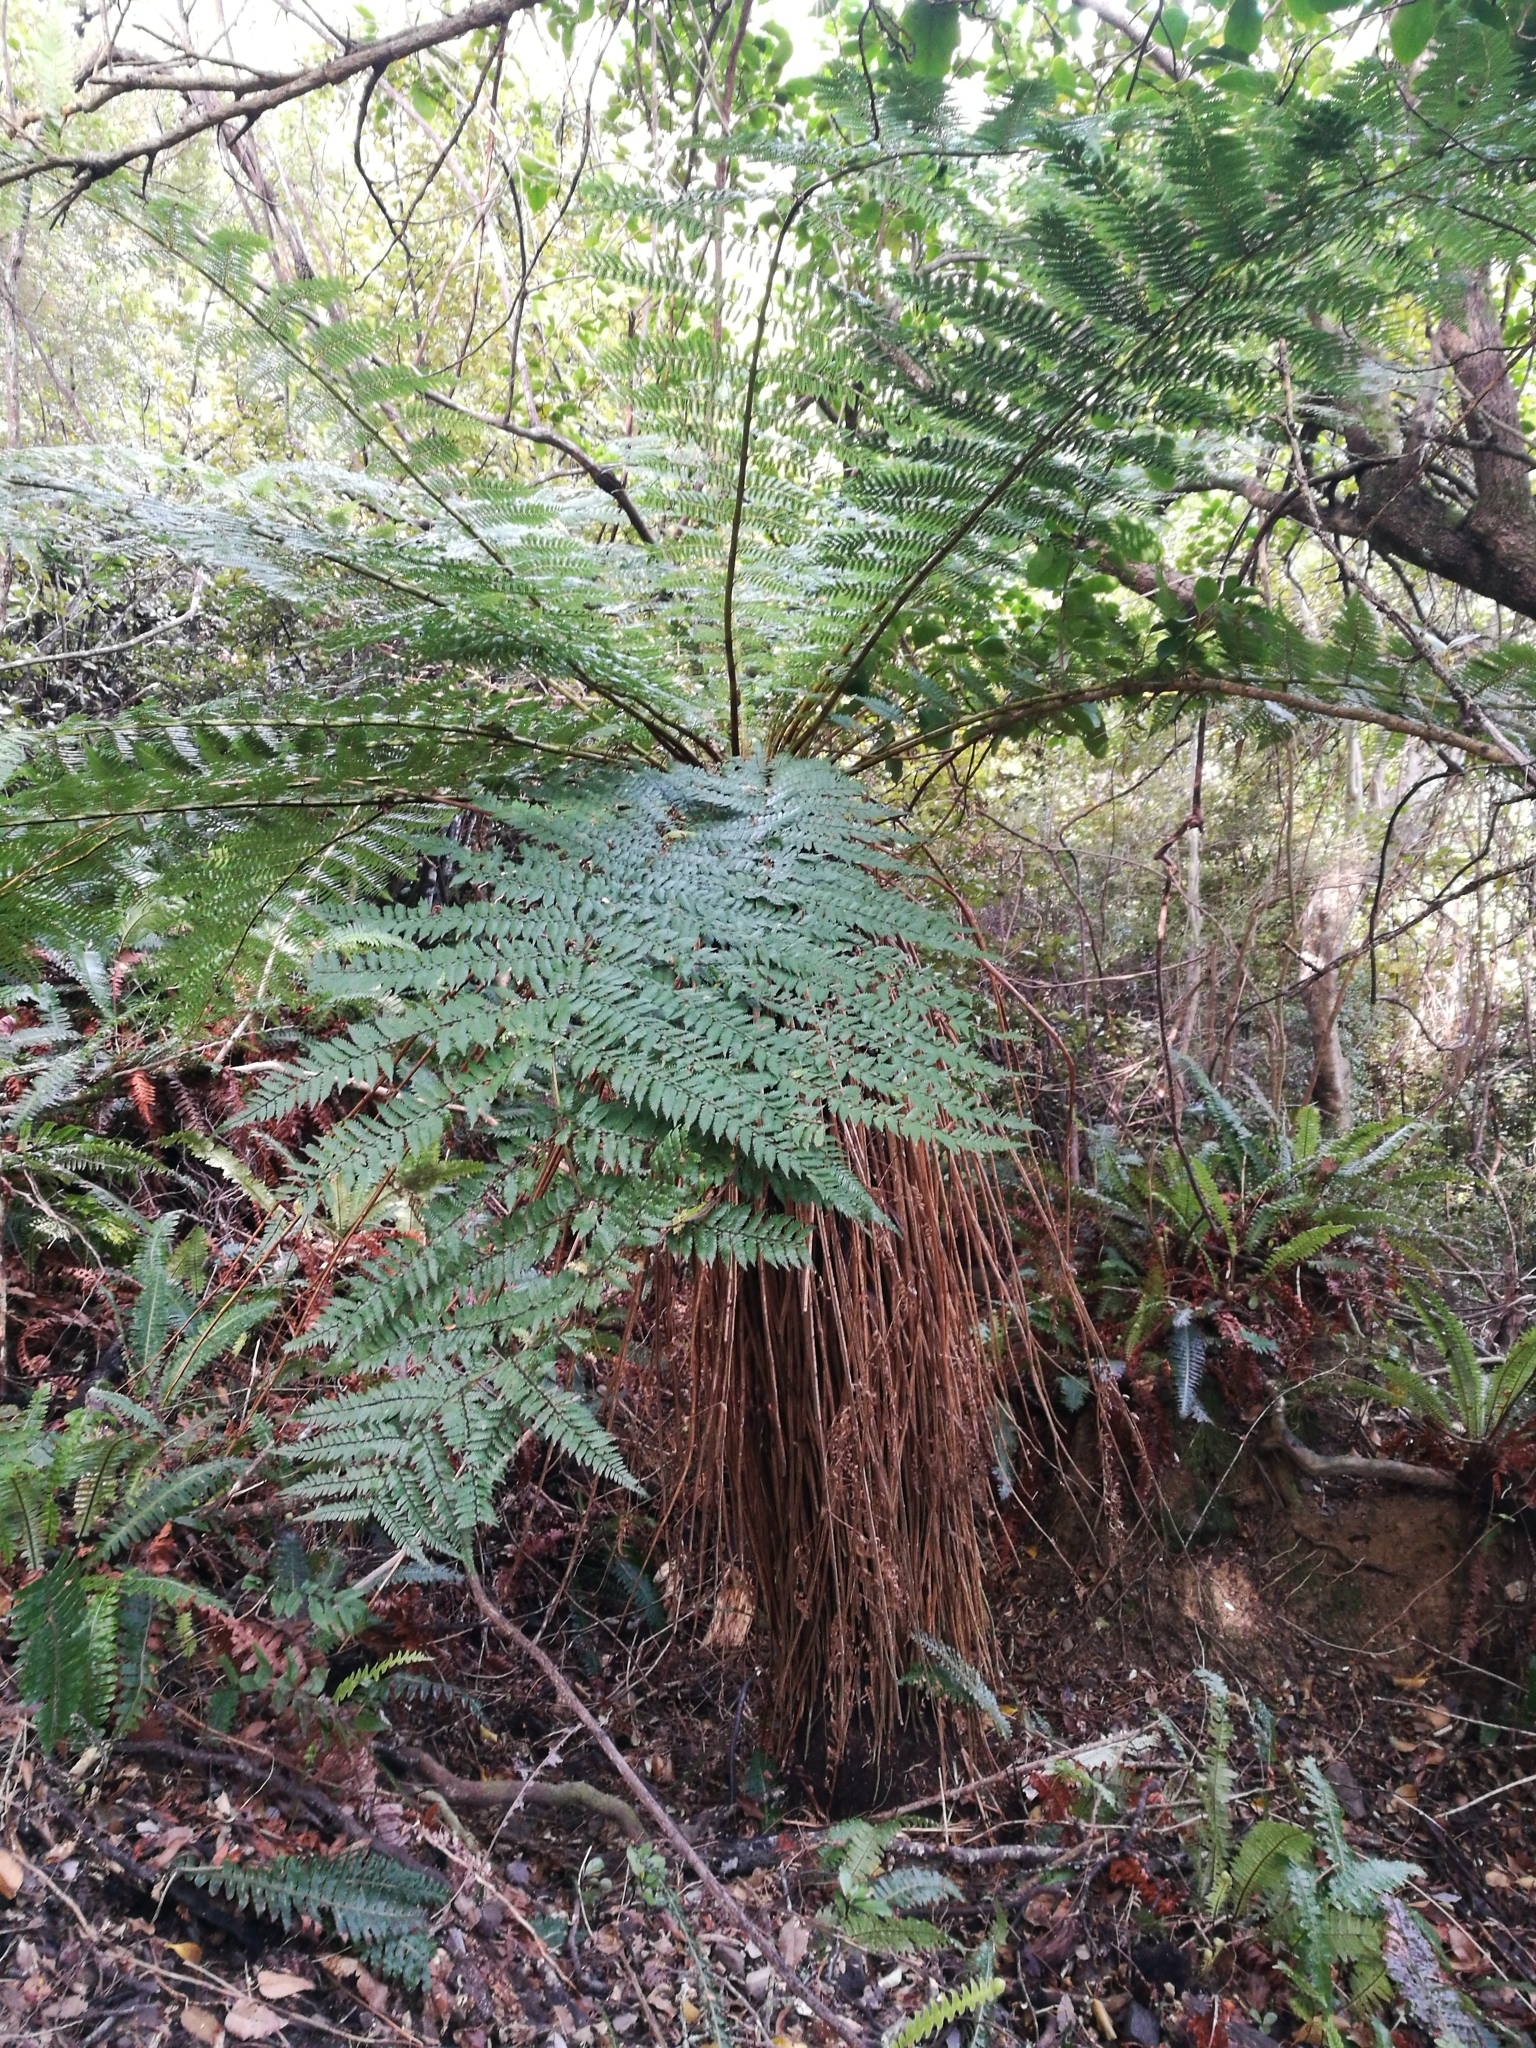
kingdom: Plantae
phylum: Tracheophyta
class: Polypodiopsida
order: Cyatheales
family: Cyatheaceae
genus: Alsophila
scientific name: Alsophila smithii
